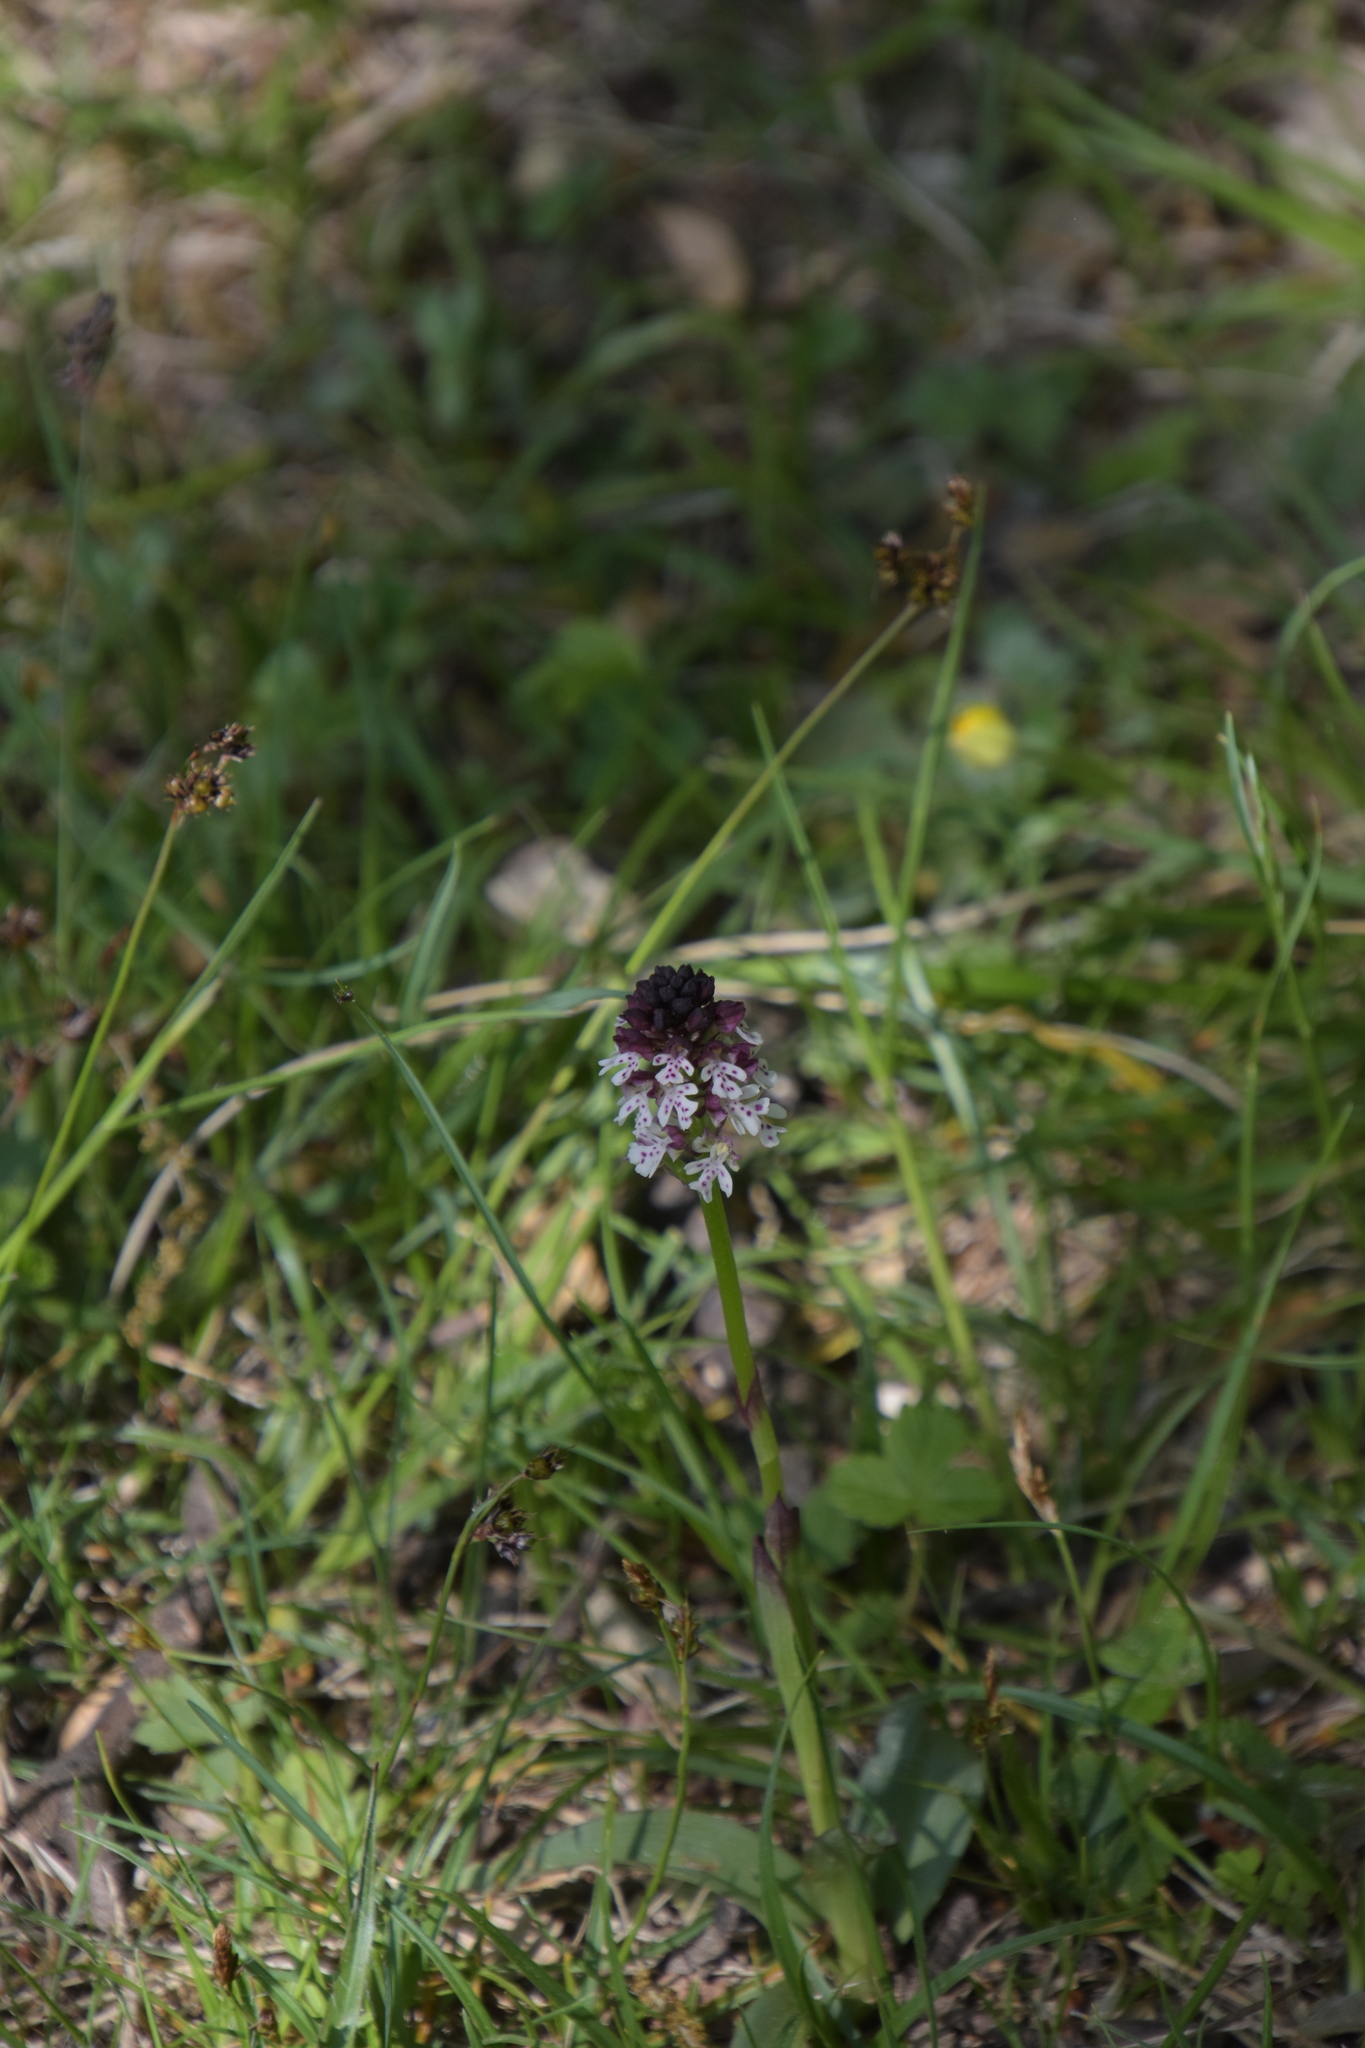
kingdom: Plantae
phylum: Tracheophyta
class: Liliopsida
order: Asparagales
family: Orchidaceae
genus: Neotinea
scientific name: Neotinea ustulata
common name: Burnt orchid
